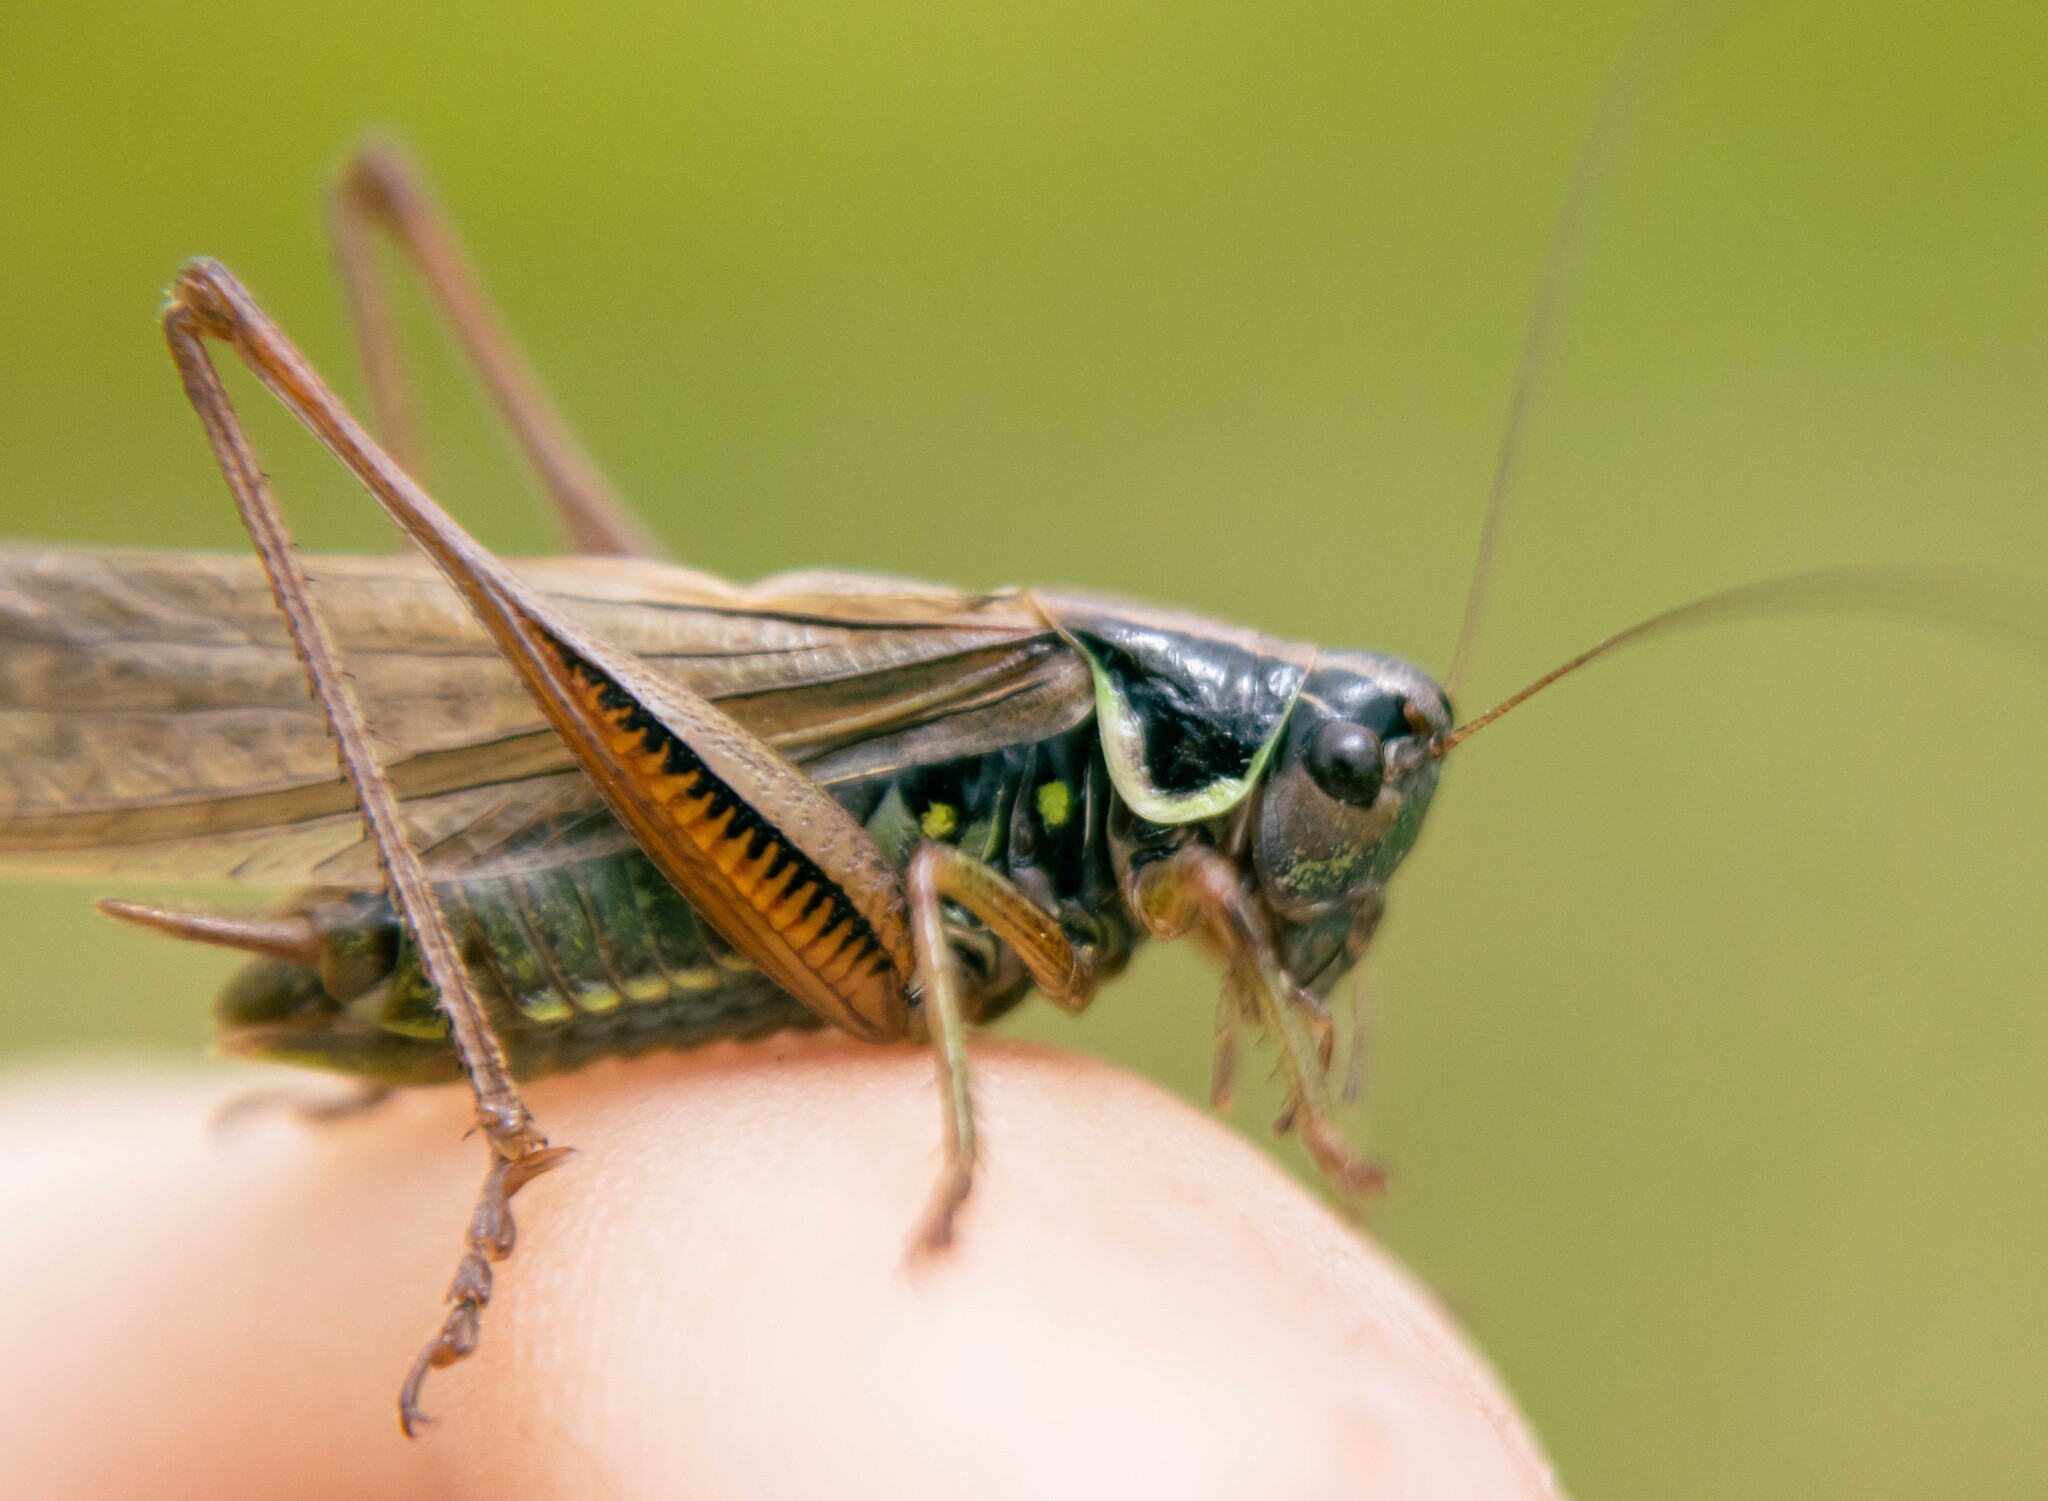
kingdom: Animalia
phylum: Arthropoda
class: Insecta
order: Orthoptera
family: Tettigoniidae
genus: Roeseliana
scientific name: Roeseliana roeselii
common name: Roesel's bush cricket
